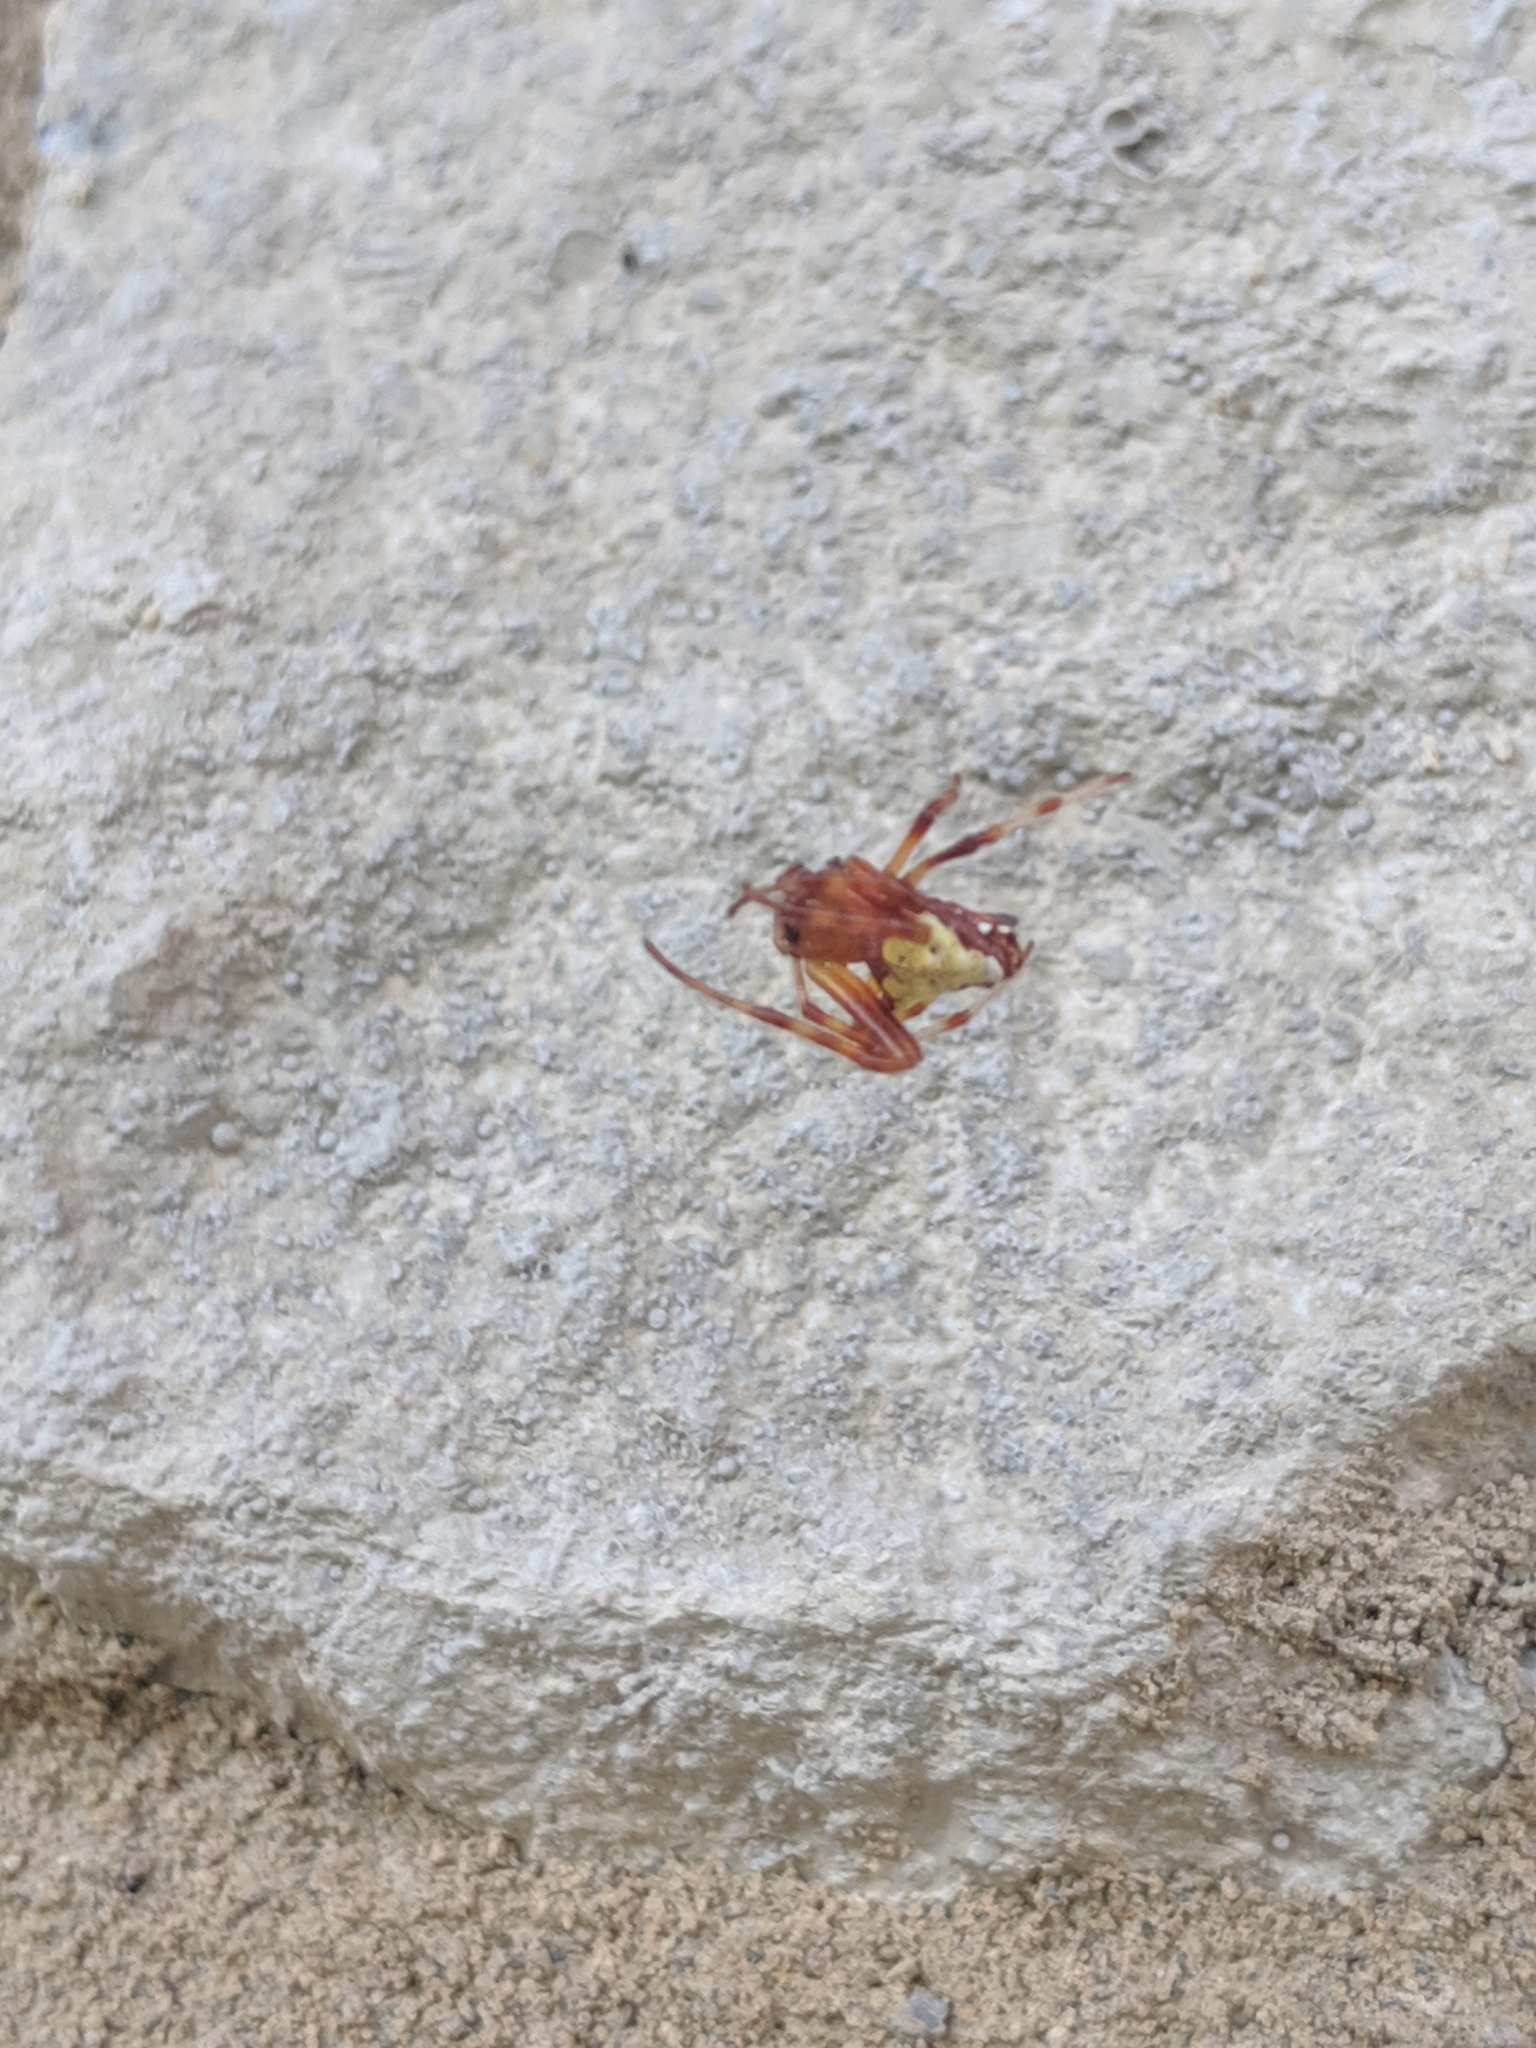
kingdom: Animalia
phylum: Arthropoda
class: Arachnida
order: Araneae
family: Araneidae
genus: Verrucosa
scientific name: Verrucosa arenata
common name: Orb weavers
